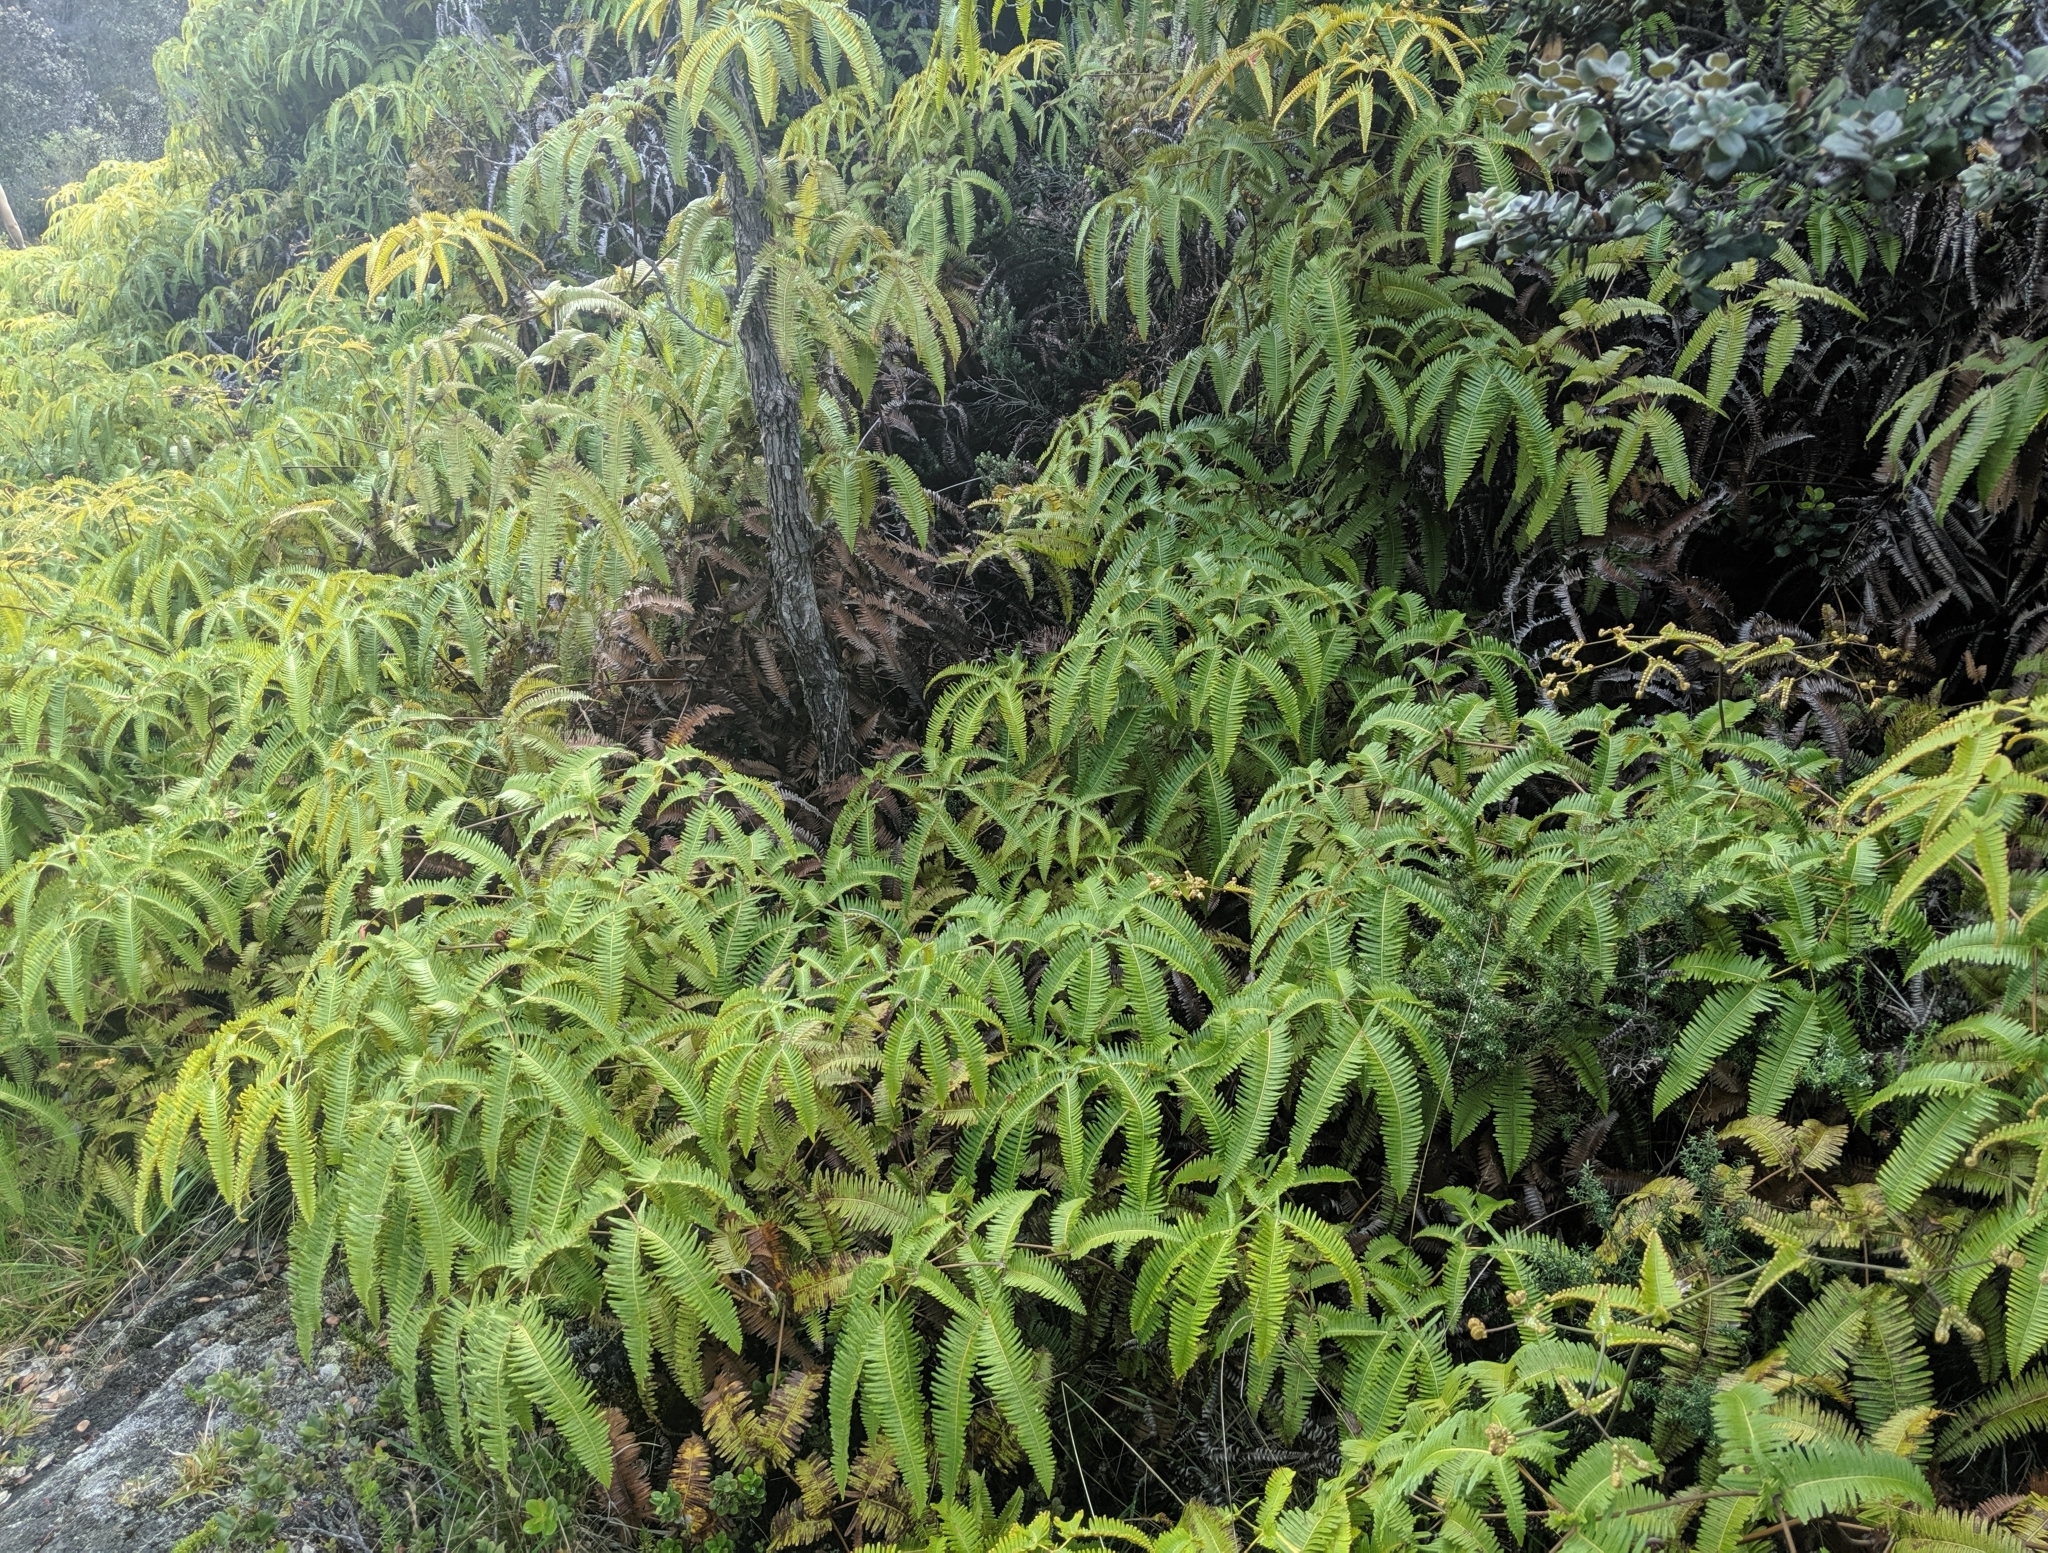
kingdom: Plantae
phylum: Tracheophyta
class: Polypodiopsida
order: Gleicheniales
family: Gleicheniaceae
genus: Dicranopteris
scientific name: Dicranopteris linearis
